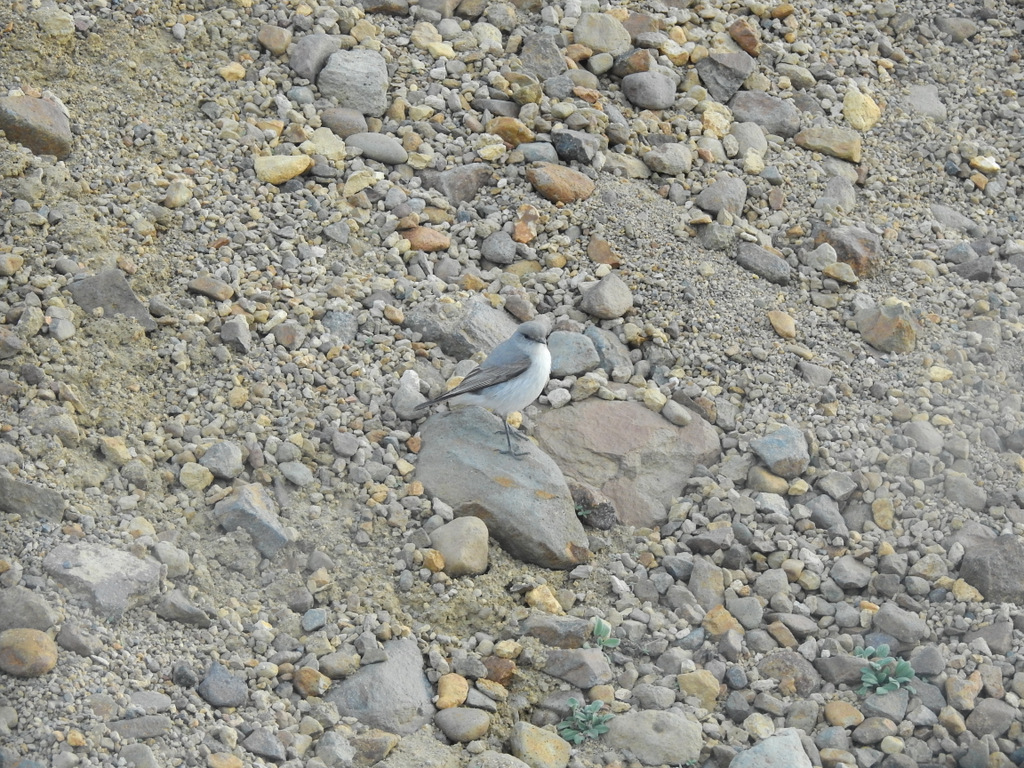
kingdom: Animalia
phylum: Chordata
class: Aves
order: Passeriformes
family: Tyrannidae
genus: Muscisaxicola
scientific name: Muscisaxicola cinereus
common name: Cinereous ground tyrant
